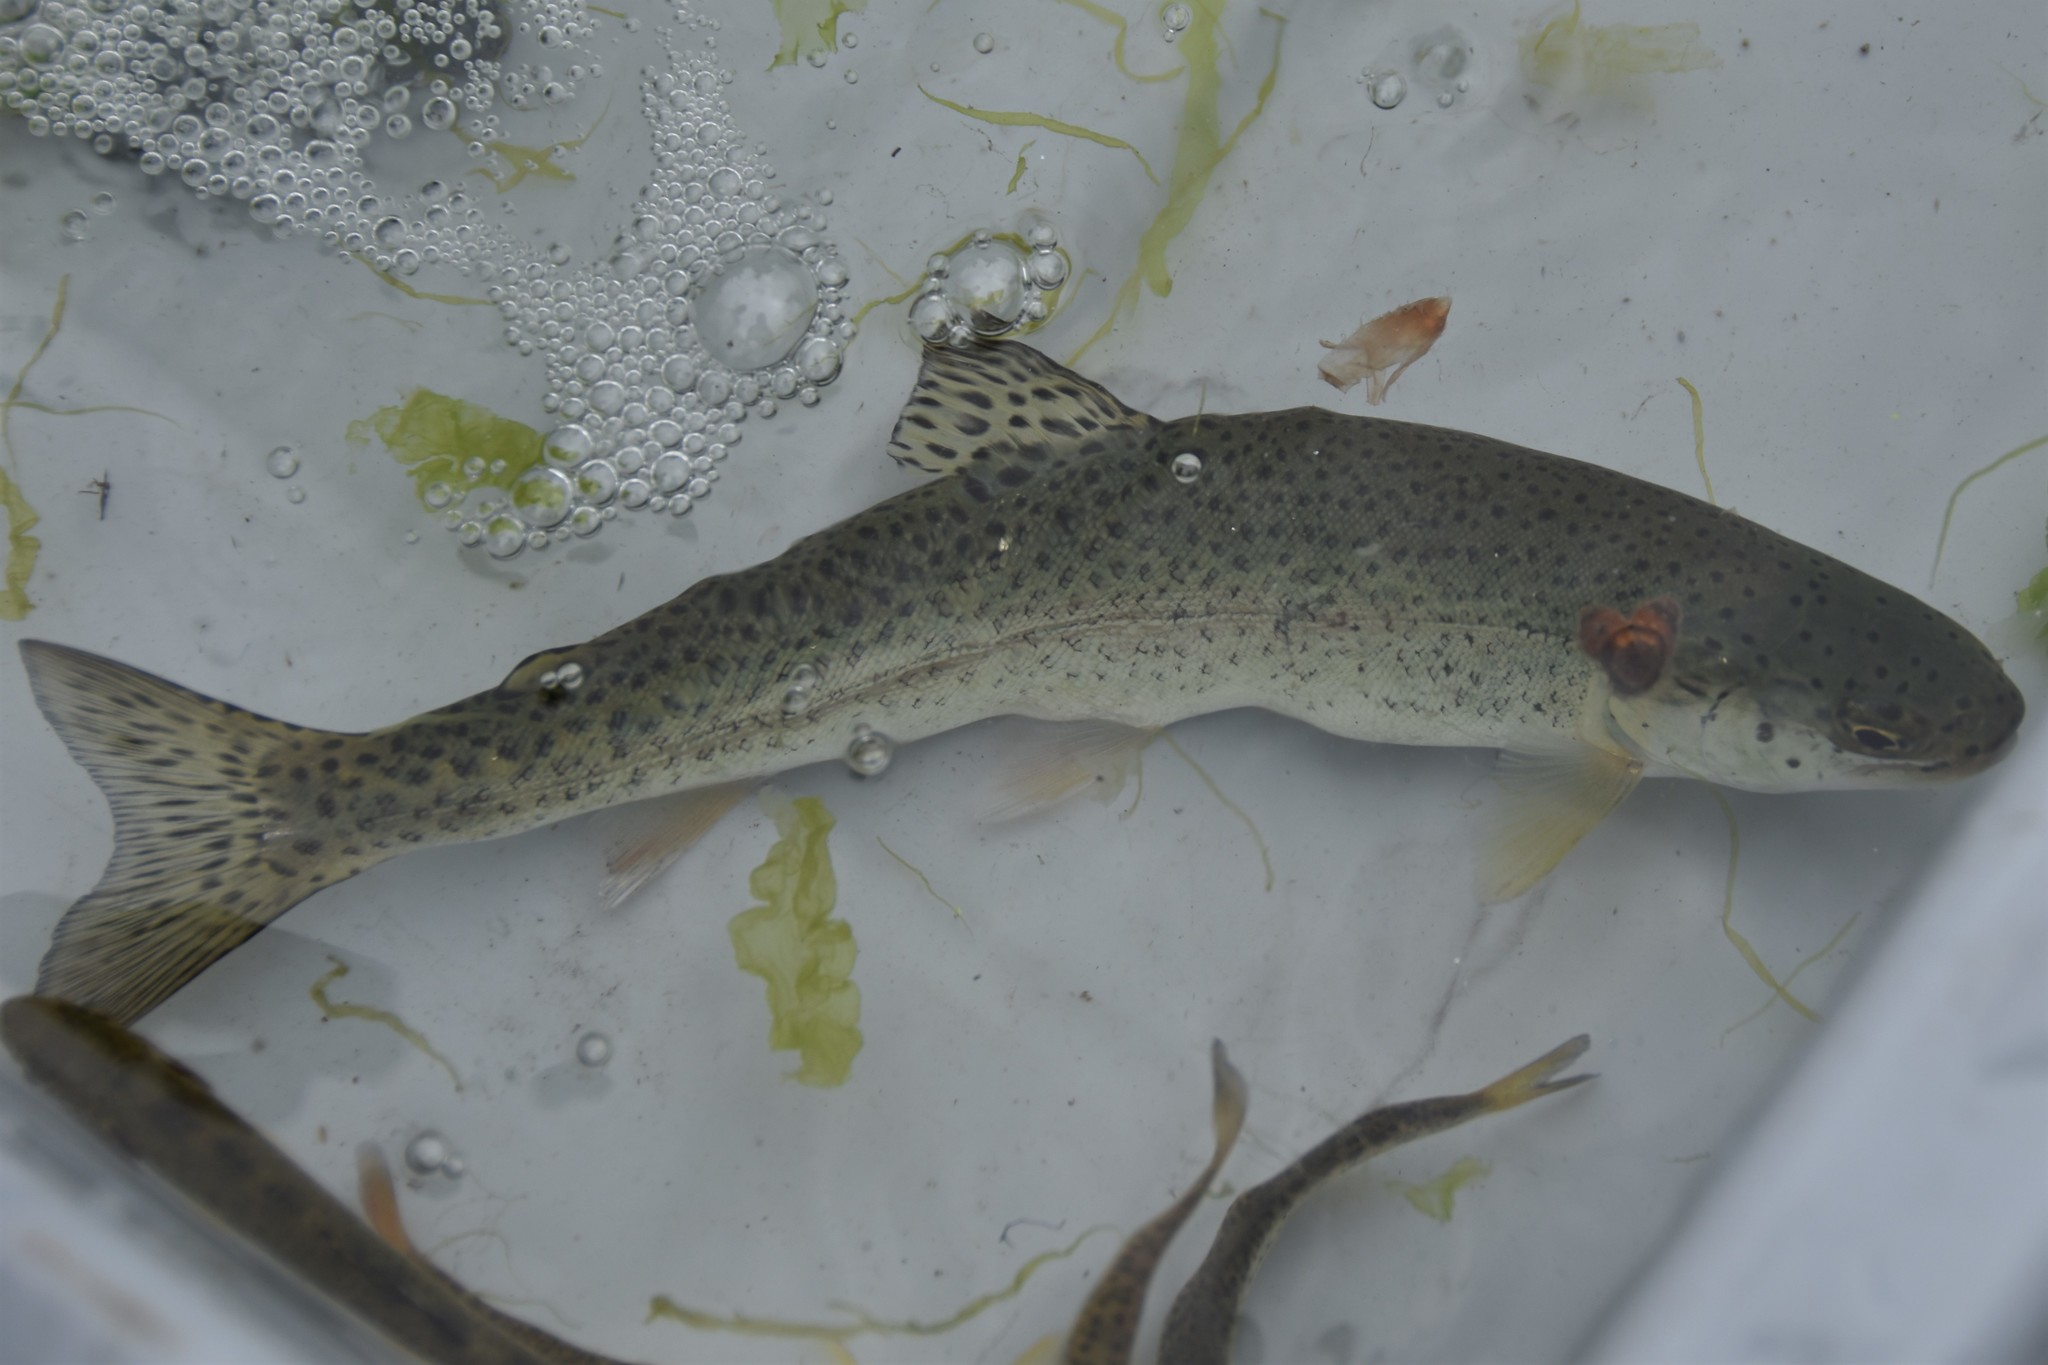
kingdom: Animalia
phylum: Chordata
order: Salmoniformes
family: Salmonidae
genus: Oncorhynchus
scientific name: Oncorhynchus mykiss
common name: Rainbow trout
